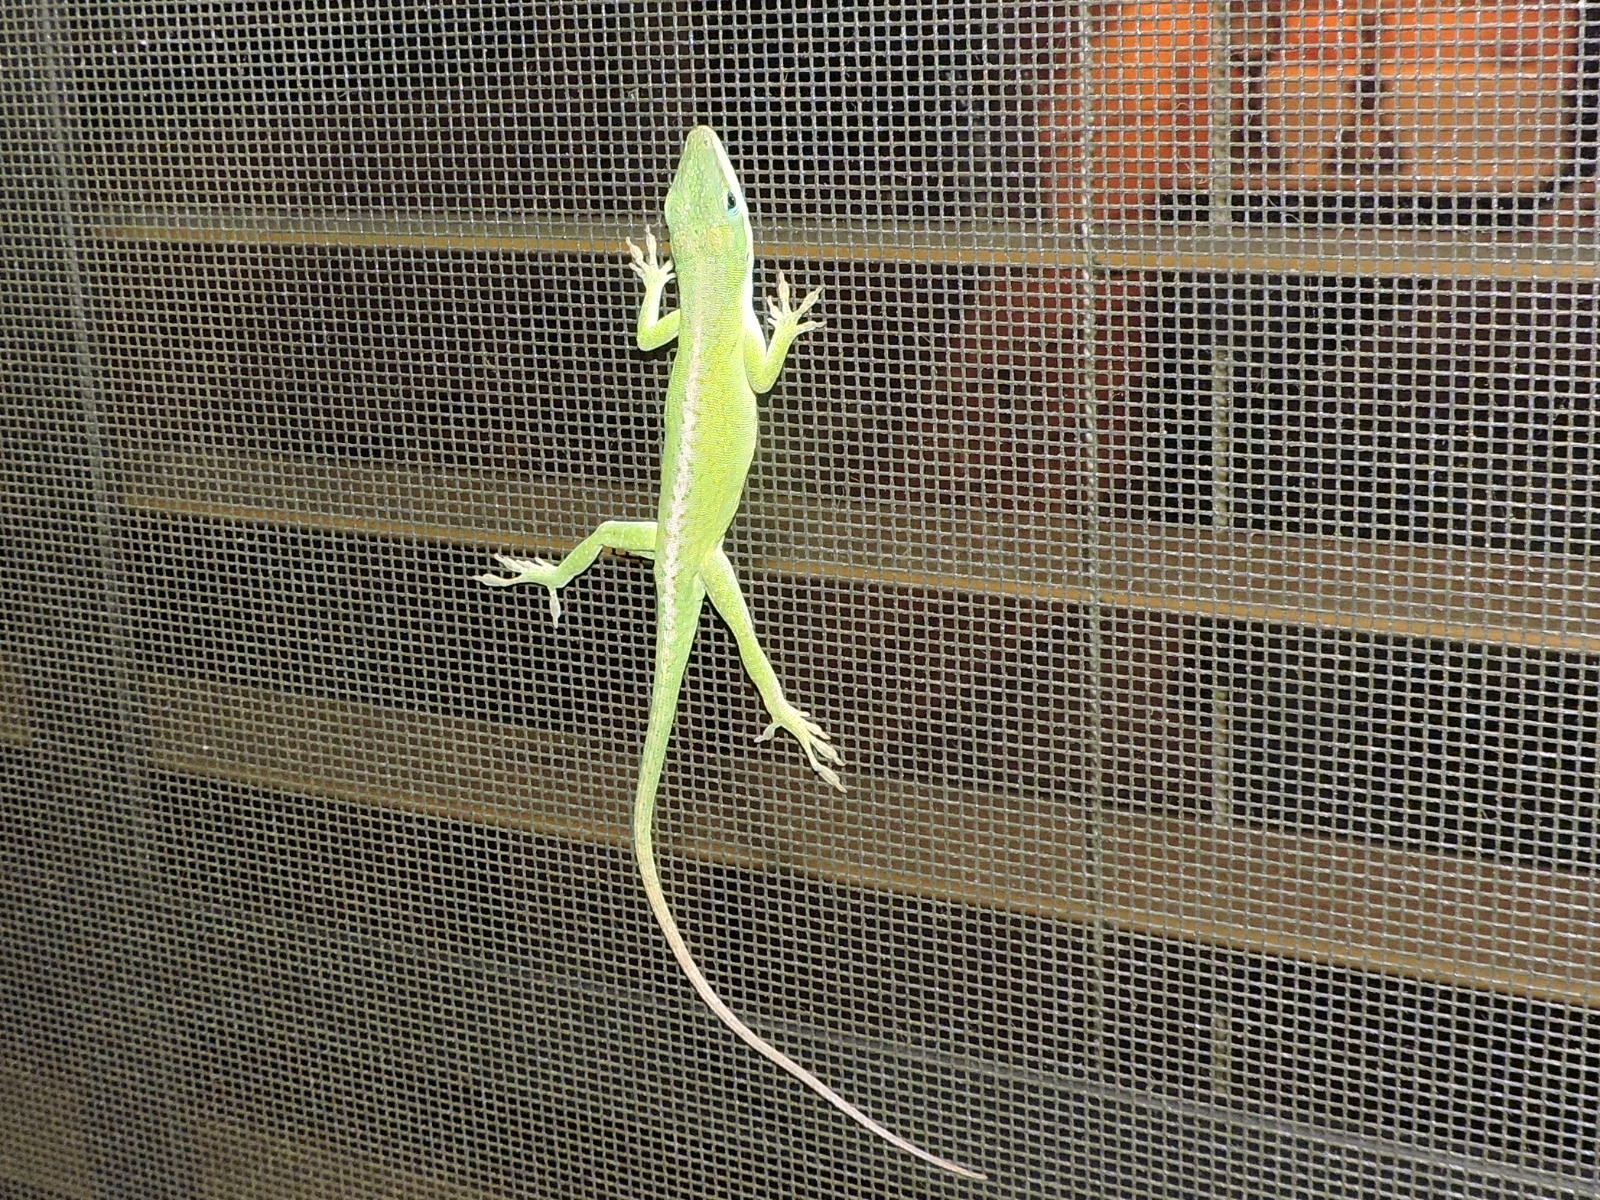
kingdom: Animalia
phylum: Chordata
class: Squamata
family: Dactyloidae
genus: Anolis
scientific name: Anolis carolinensis
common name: Green anole
